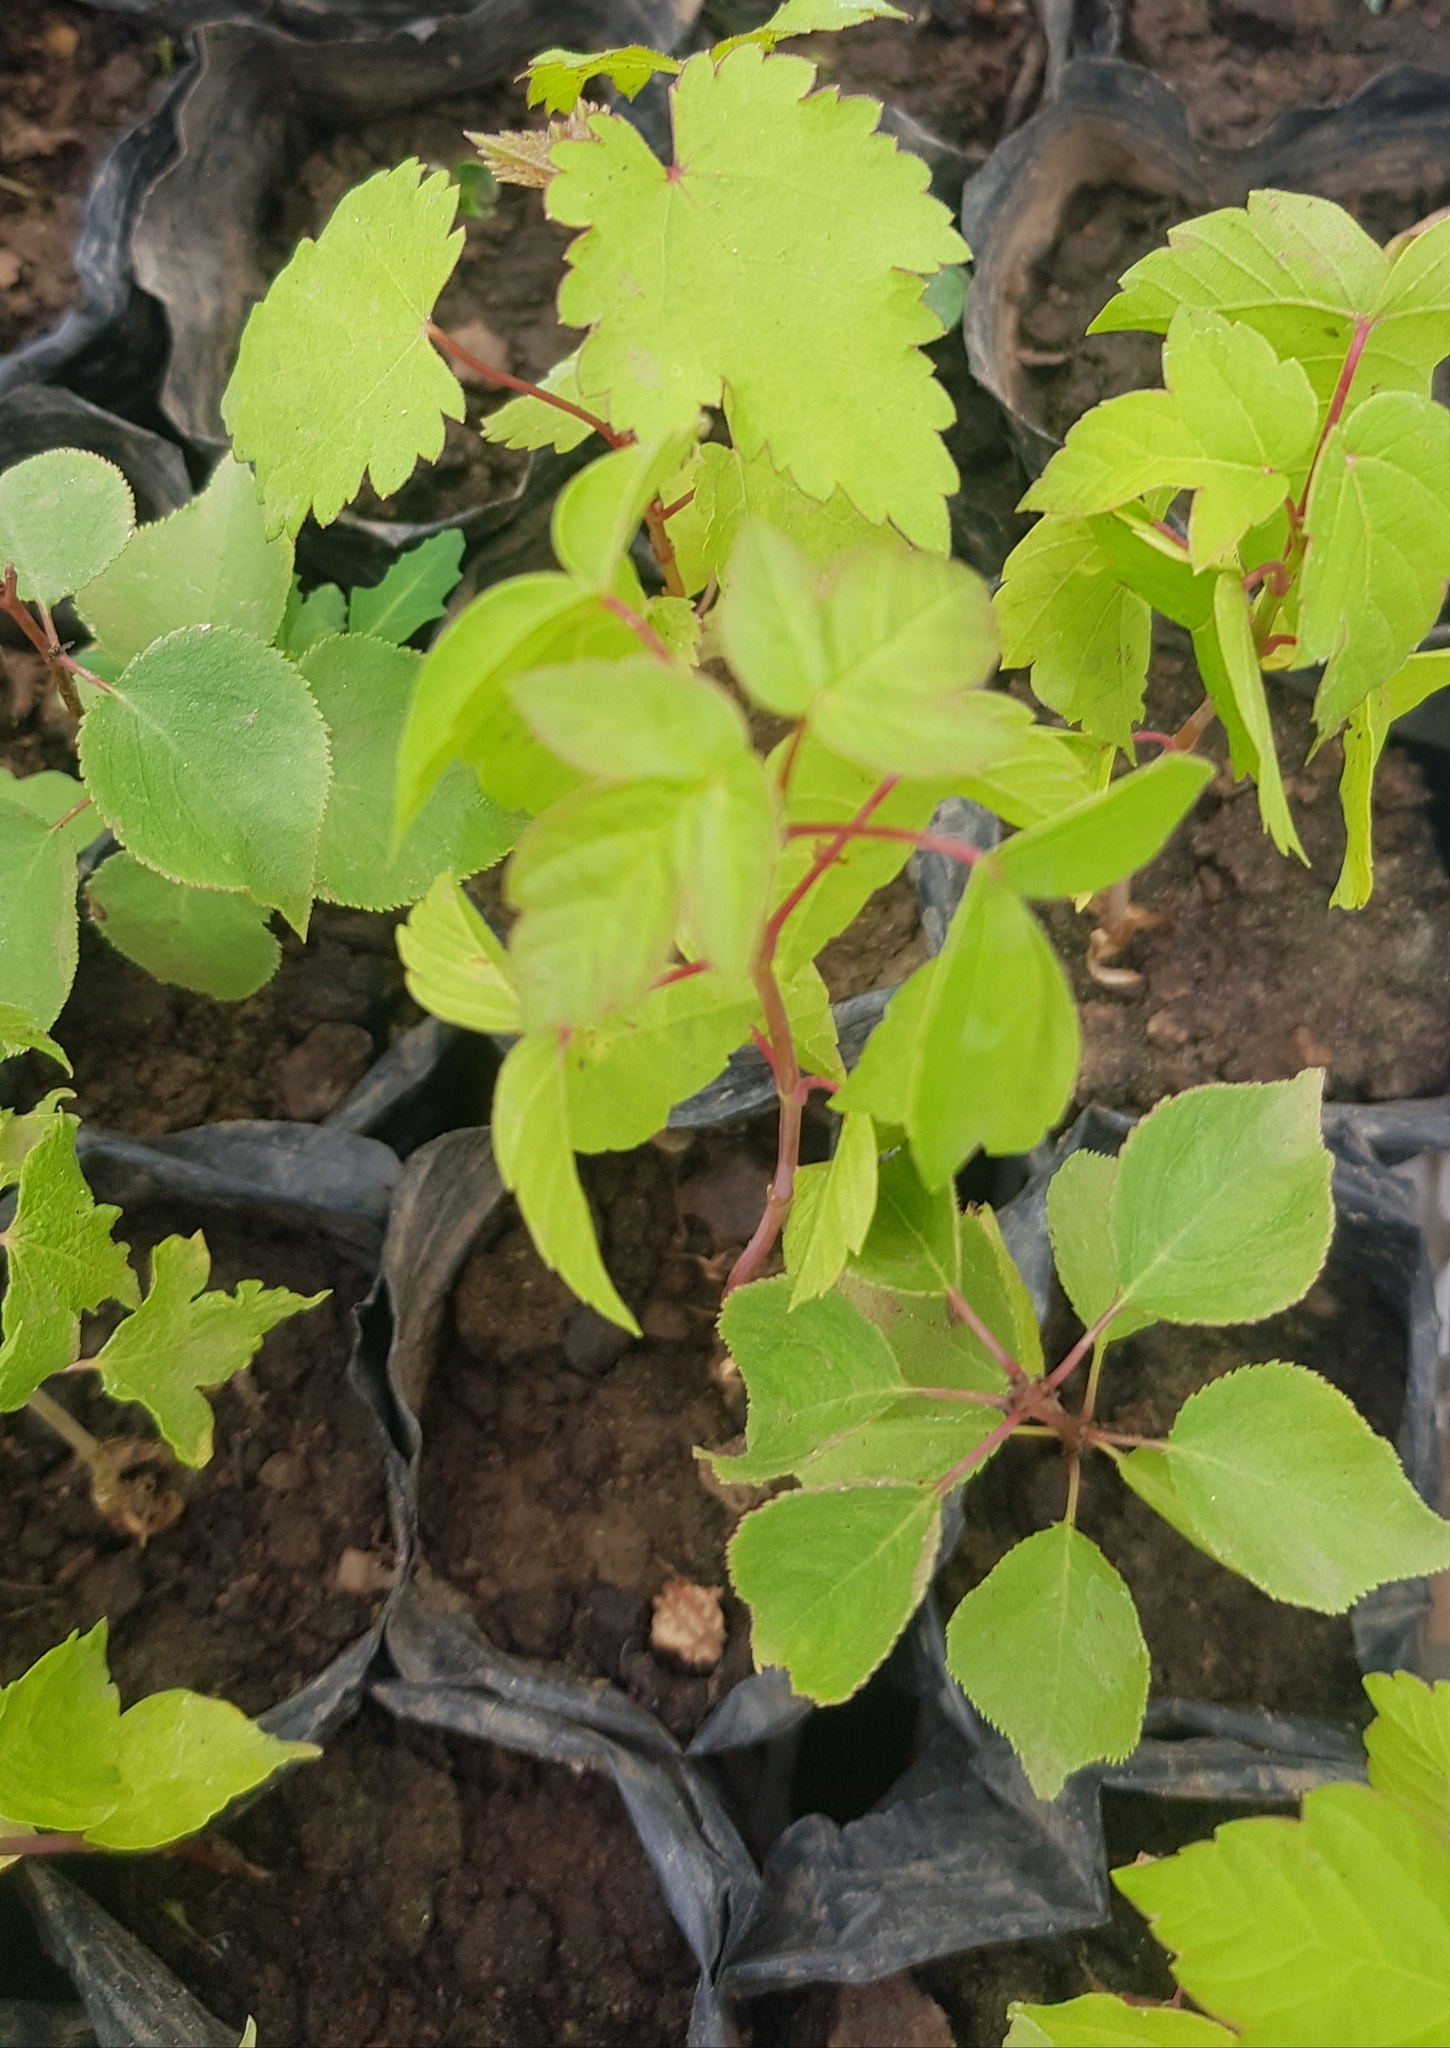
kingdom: Plantae
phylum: Tracheophyta
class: Magnoliopsida
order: Rosales
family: Rosaceae
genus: Prunus
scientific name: Prunus armeniaca
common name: Apricot
